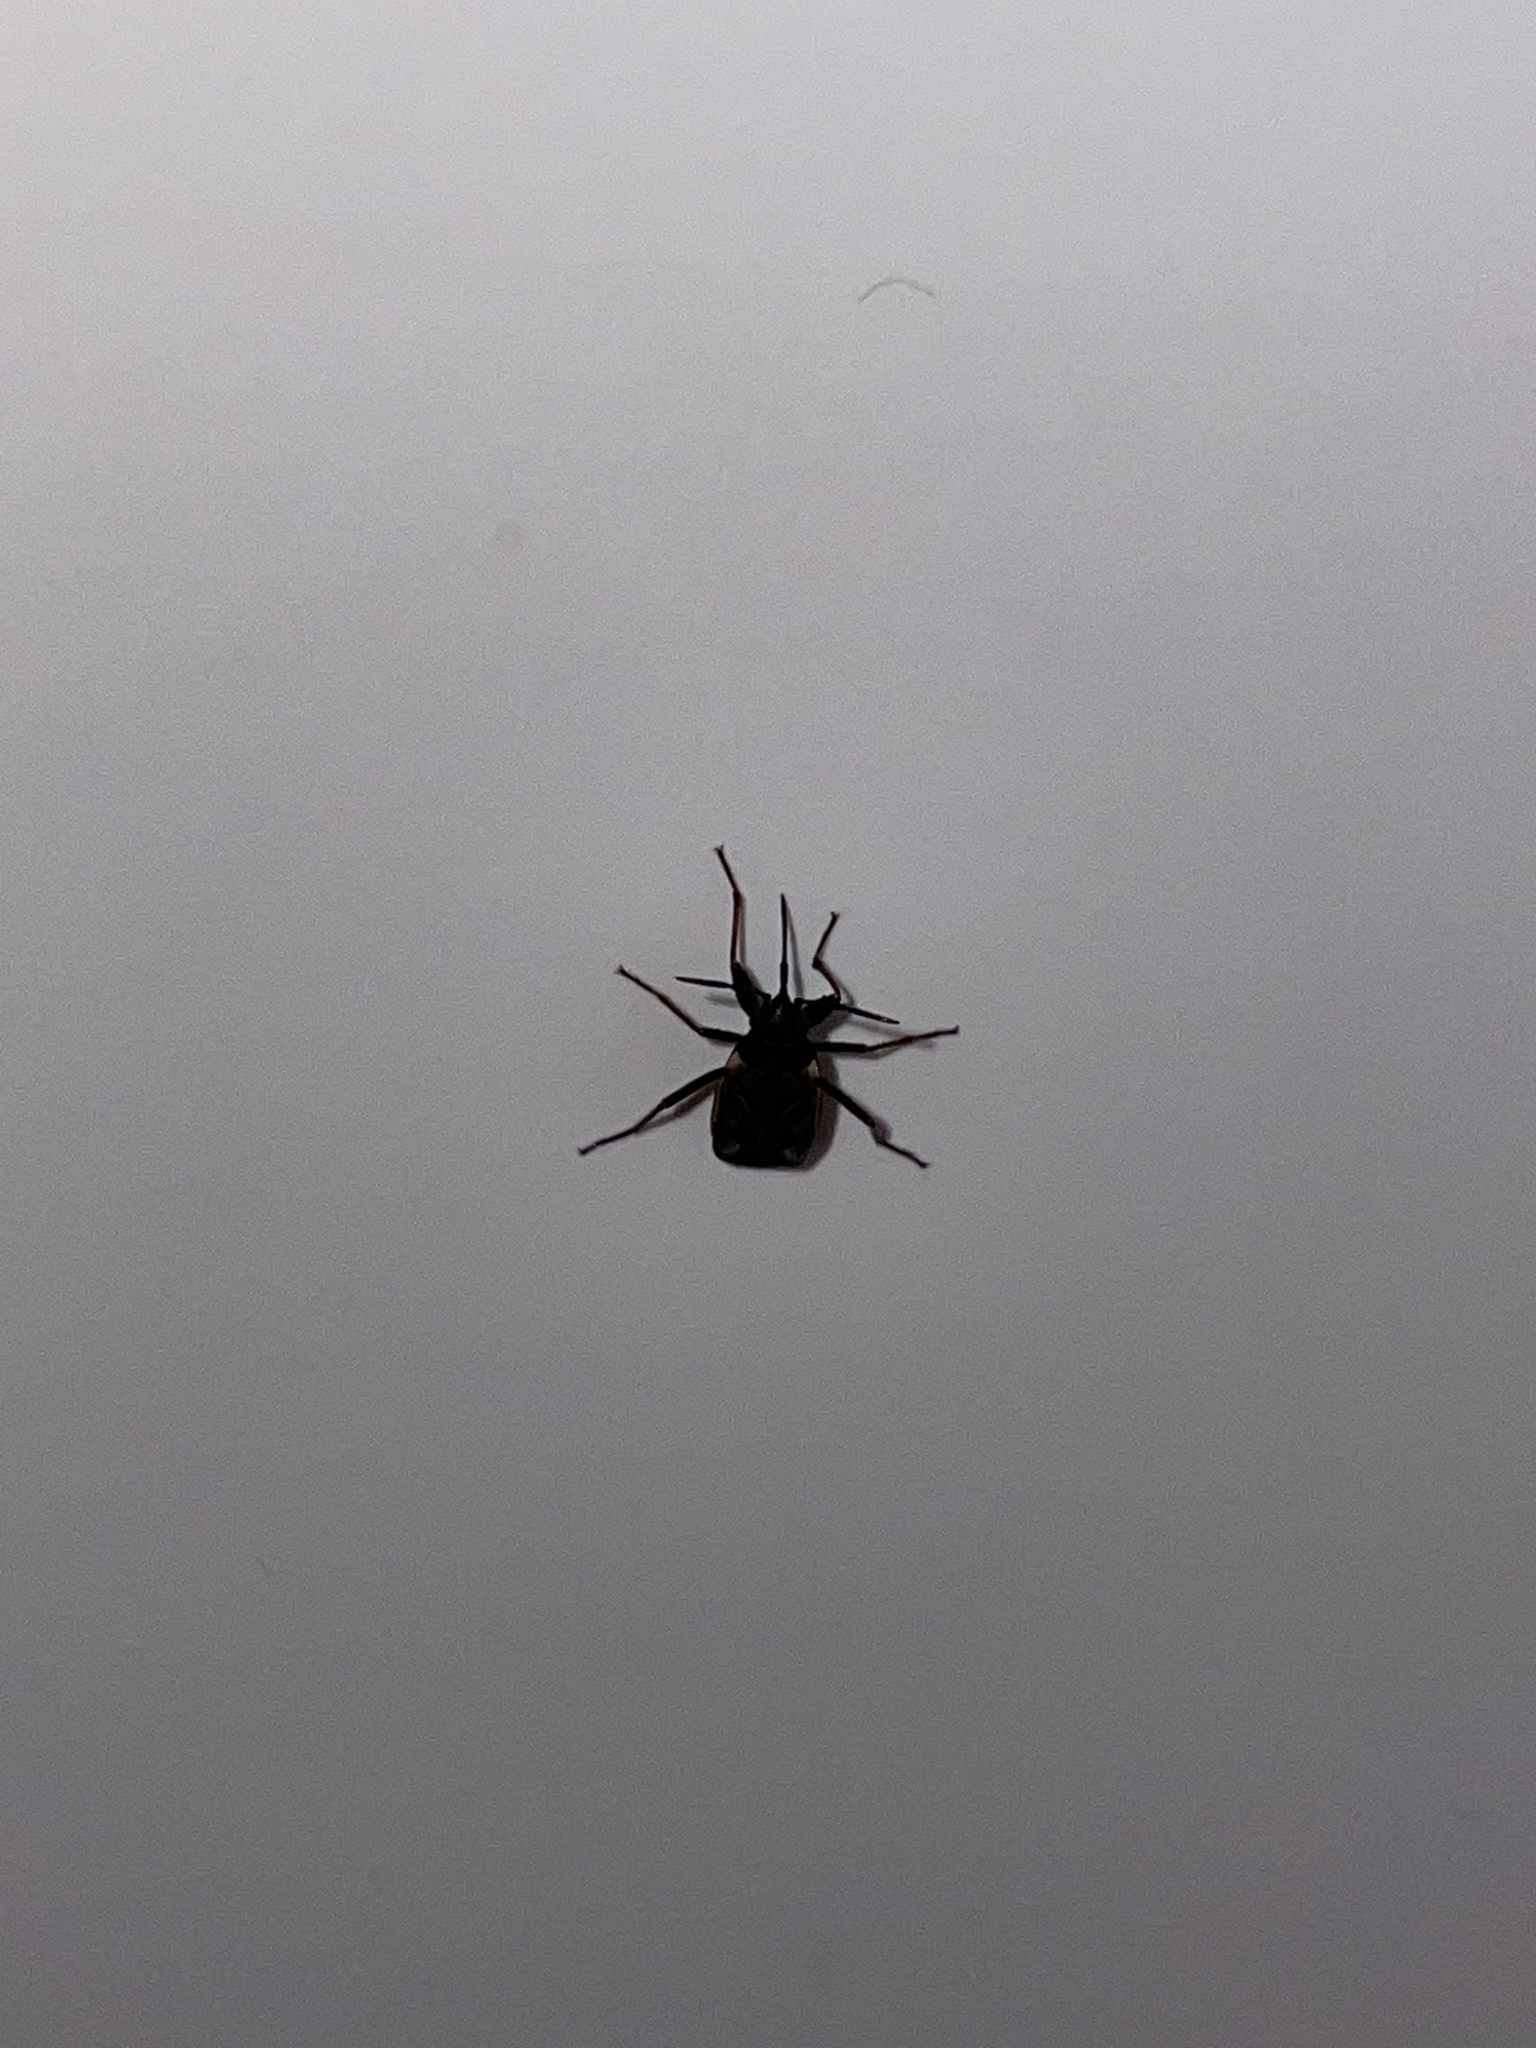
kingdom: Animalia
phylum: Arthropoda
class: Insecta
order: Hemiptera
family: Rhyparochromidae
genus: Rhyparochromus
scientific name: Rhyparochromus vulgaris
